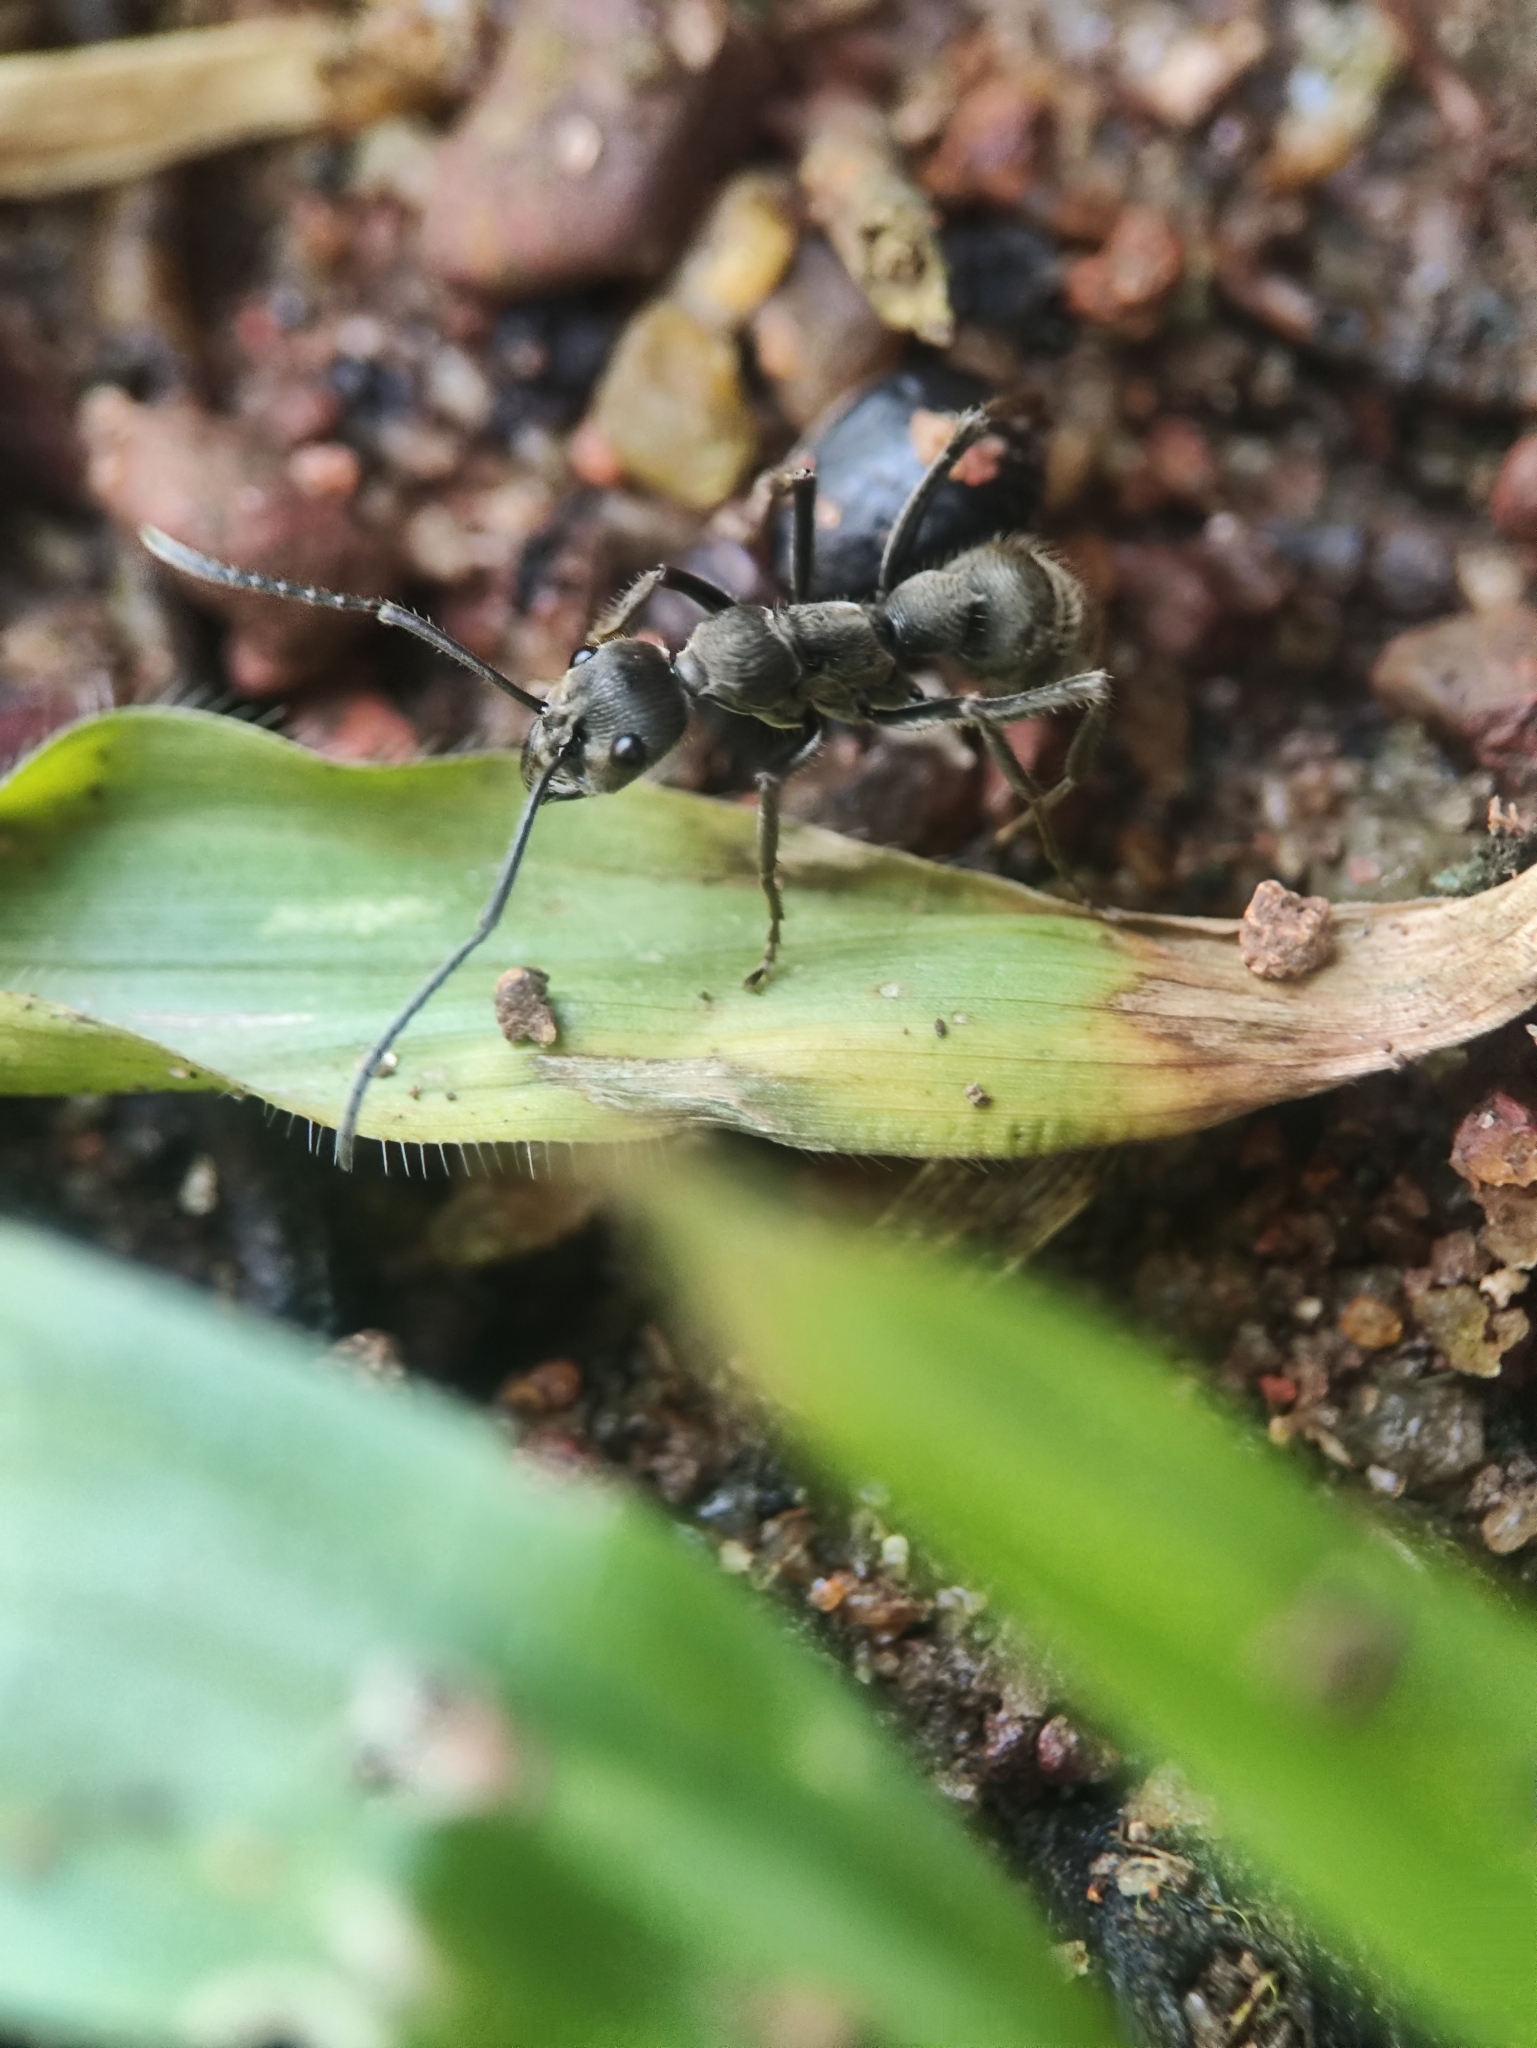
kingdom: Animalia
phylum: Arthropoda
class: Insecta
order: Hymenoptera
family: Formicidae
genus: Diacamma
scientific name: Diacamma rugosum
